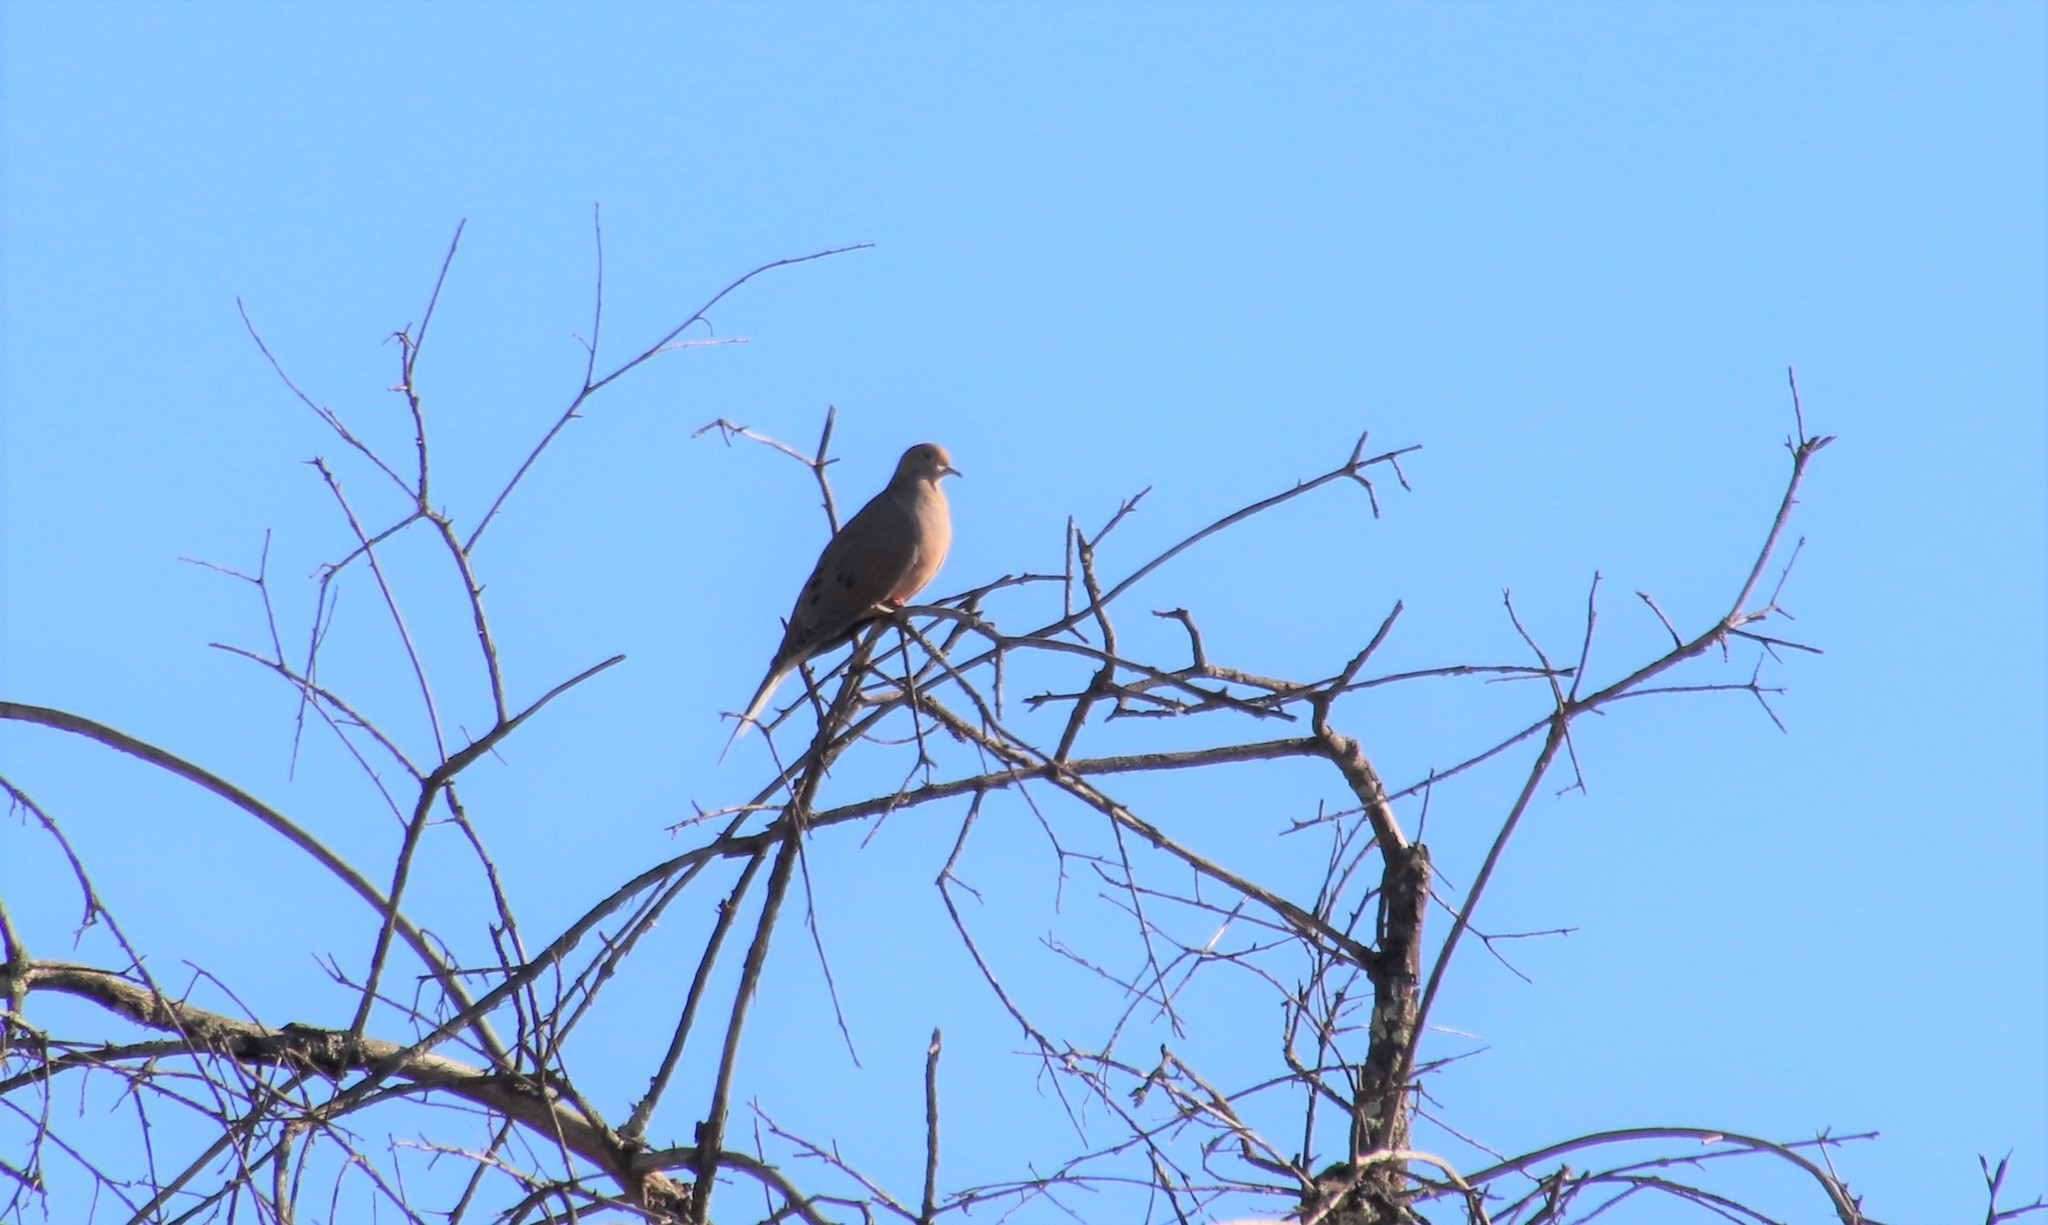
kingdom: Animalia
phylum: Chordata
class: Aves
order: Columbiformes
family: Columbidae
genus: Zenaida
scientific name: Zenaida macroura
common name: Mourning dove
